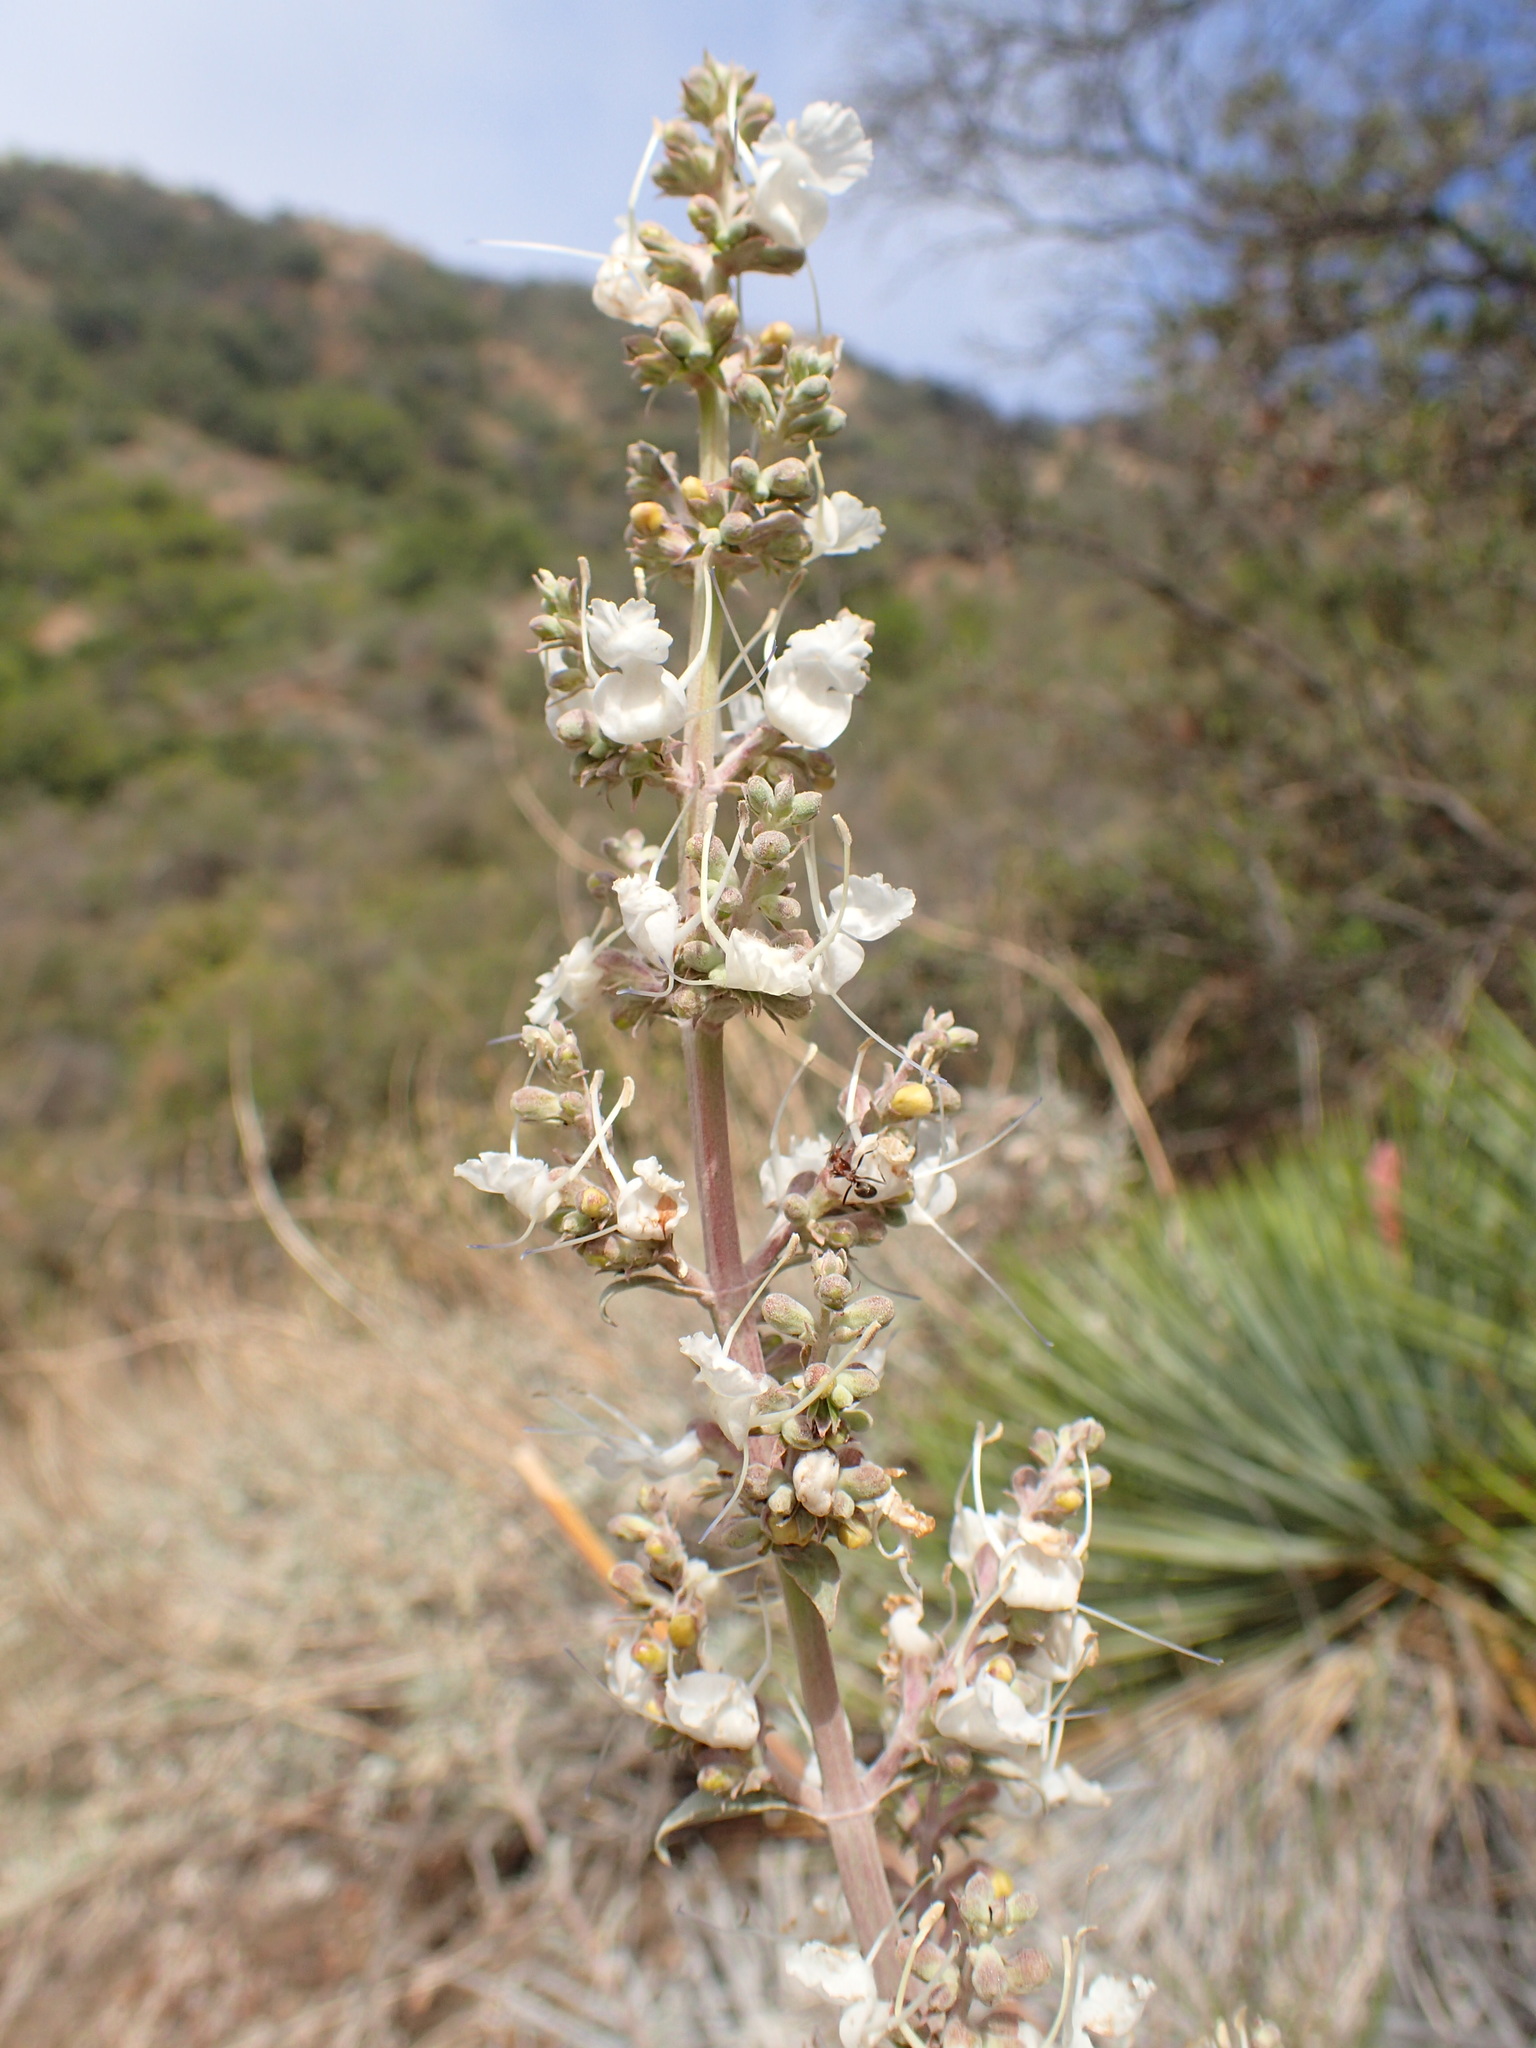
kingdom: Plantae
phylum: Tracheophyta
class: Magnoliopsida
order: Lamiales
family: Lamiaceae
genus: Salvia
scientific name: Salvia apiana
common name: White sage
